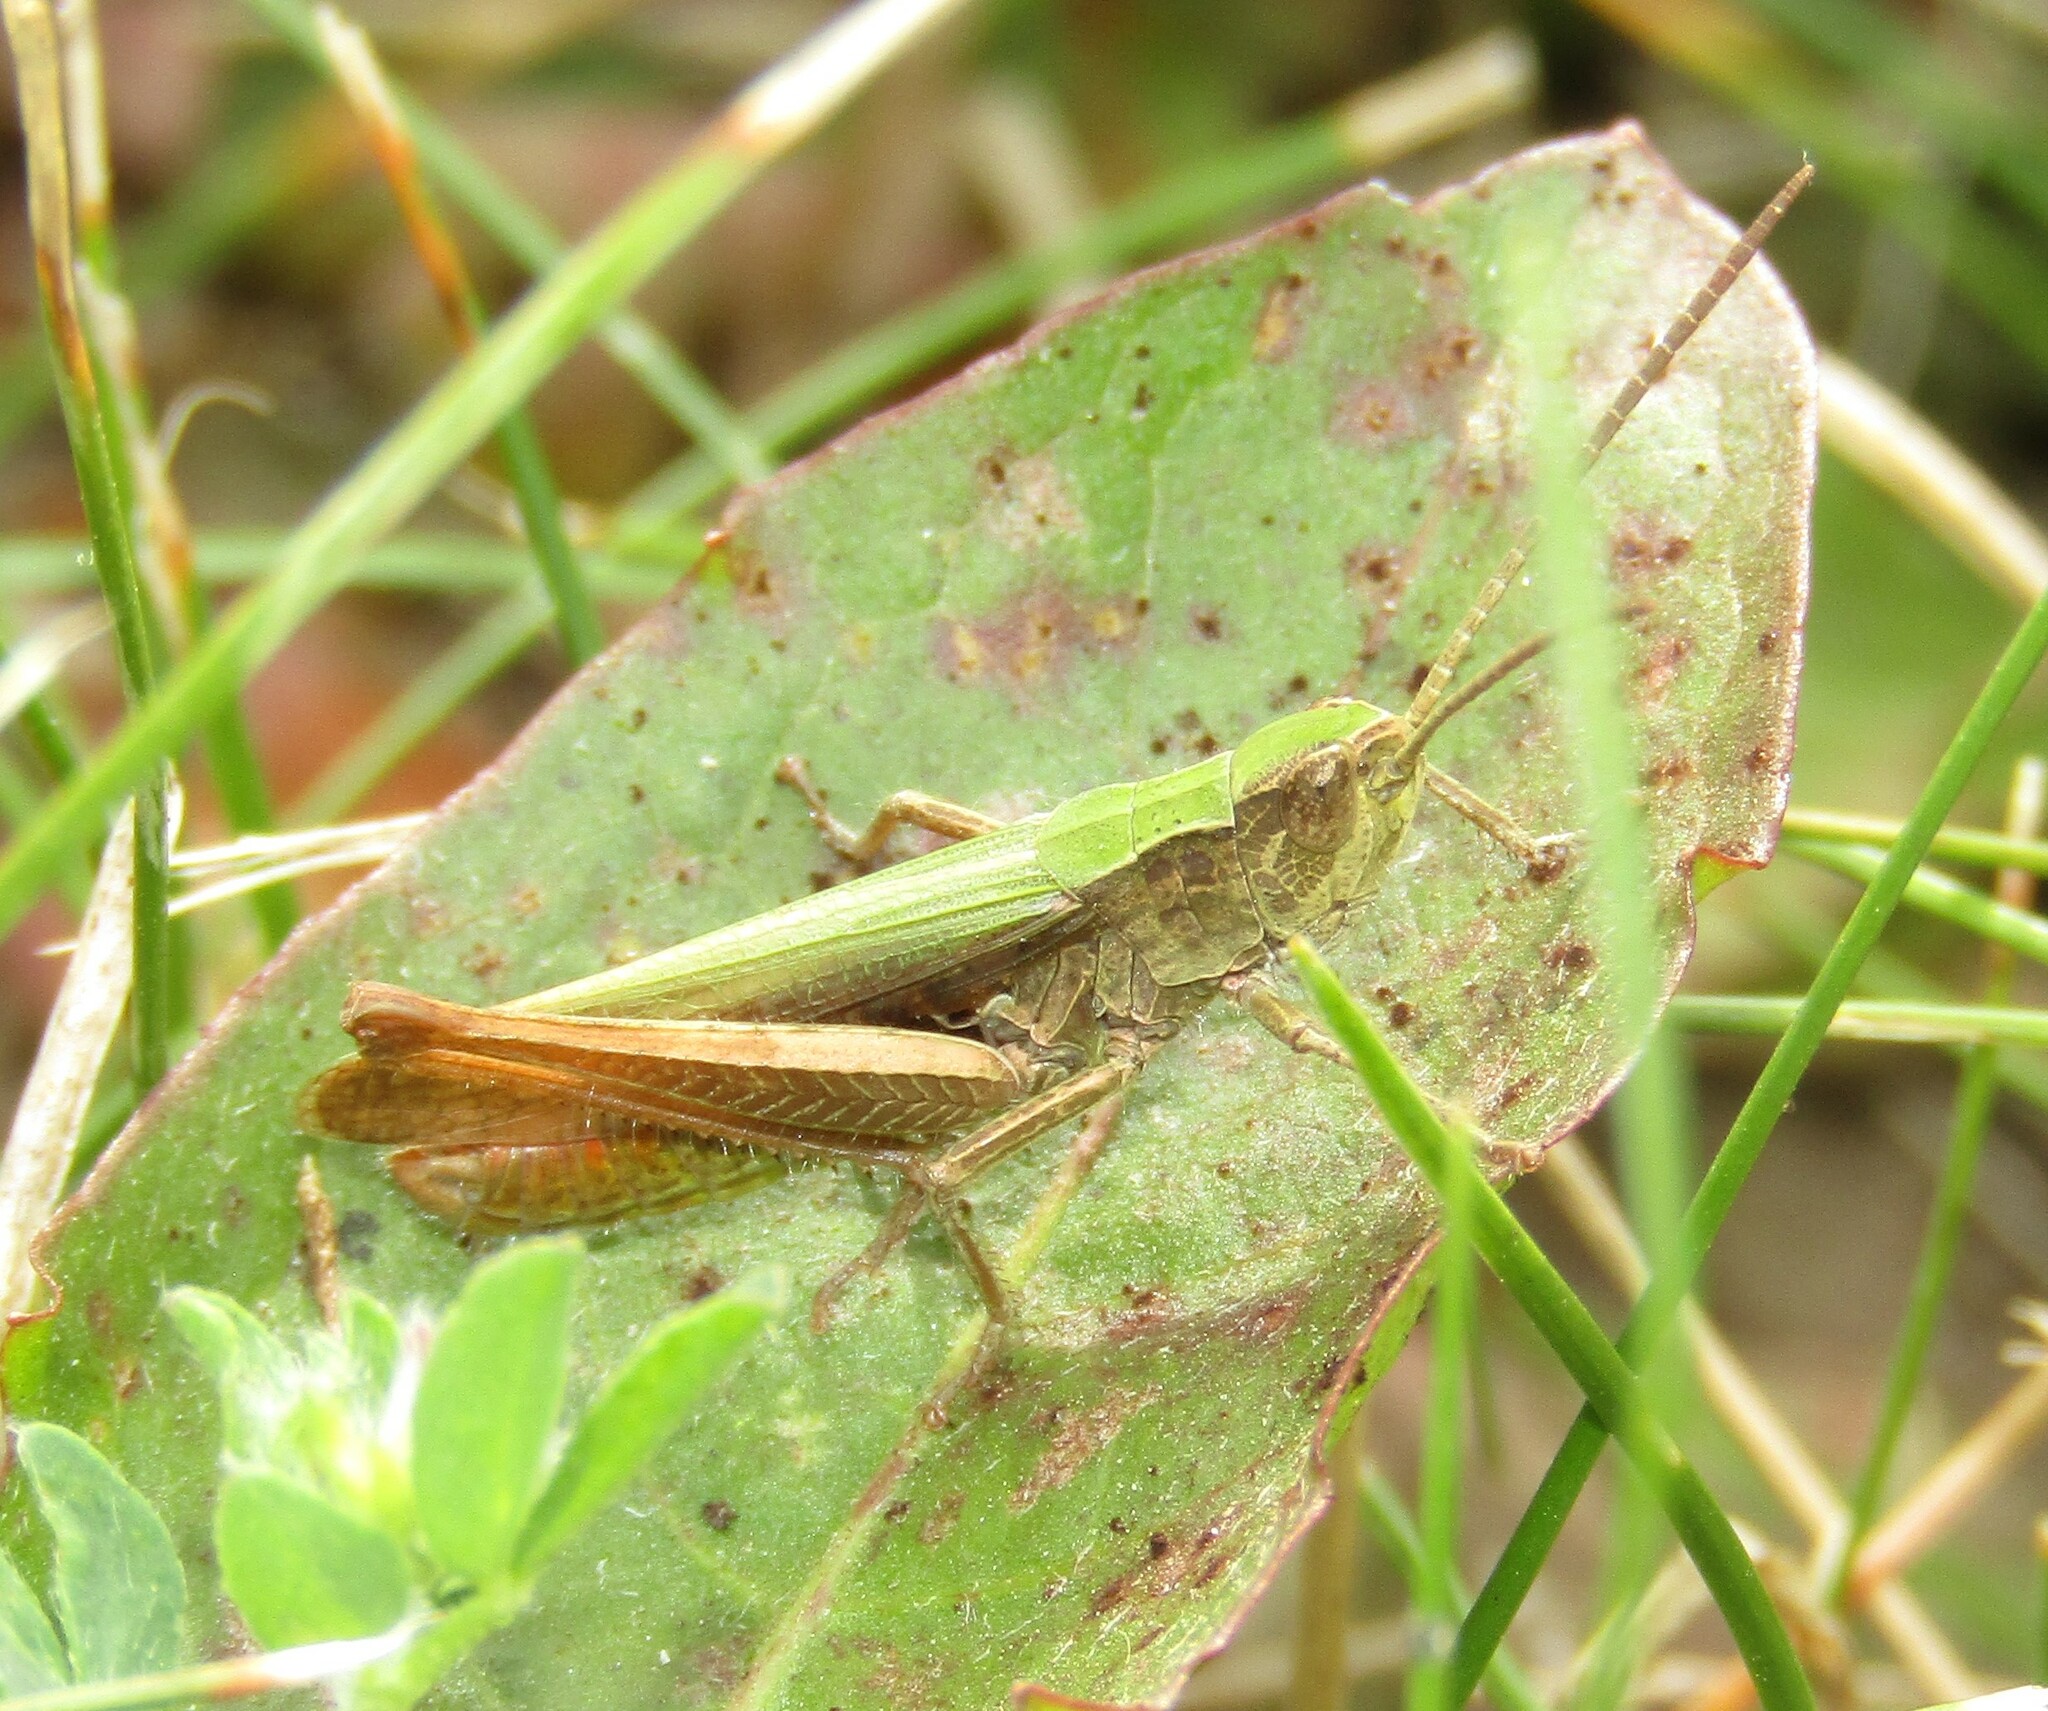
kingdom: Animalia
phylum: Arthropoda
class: Insecta
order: Orthoptera
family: Acrididae
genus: Chorthippus
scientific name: Chorthippus dorsatus
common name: Steppe grasshopper
